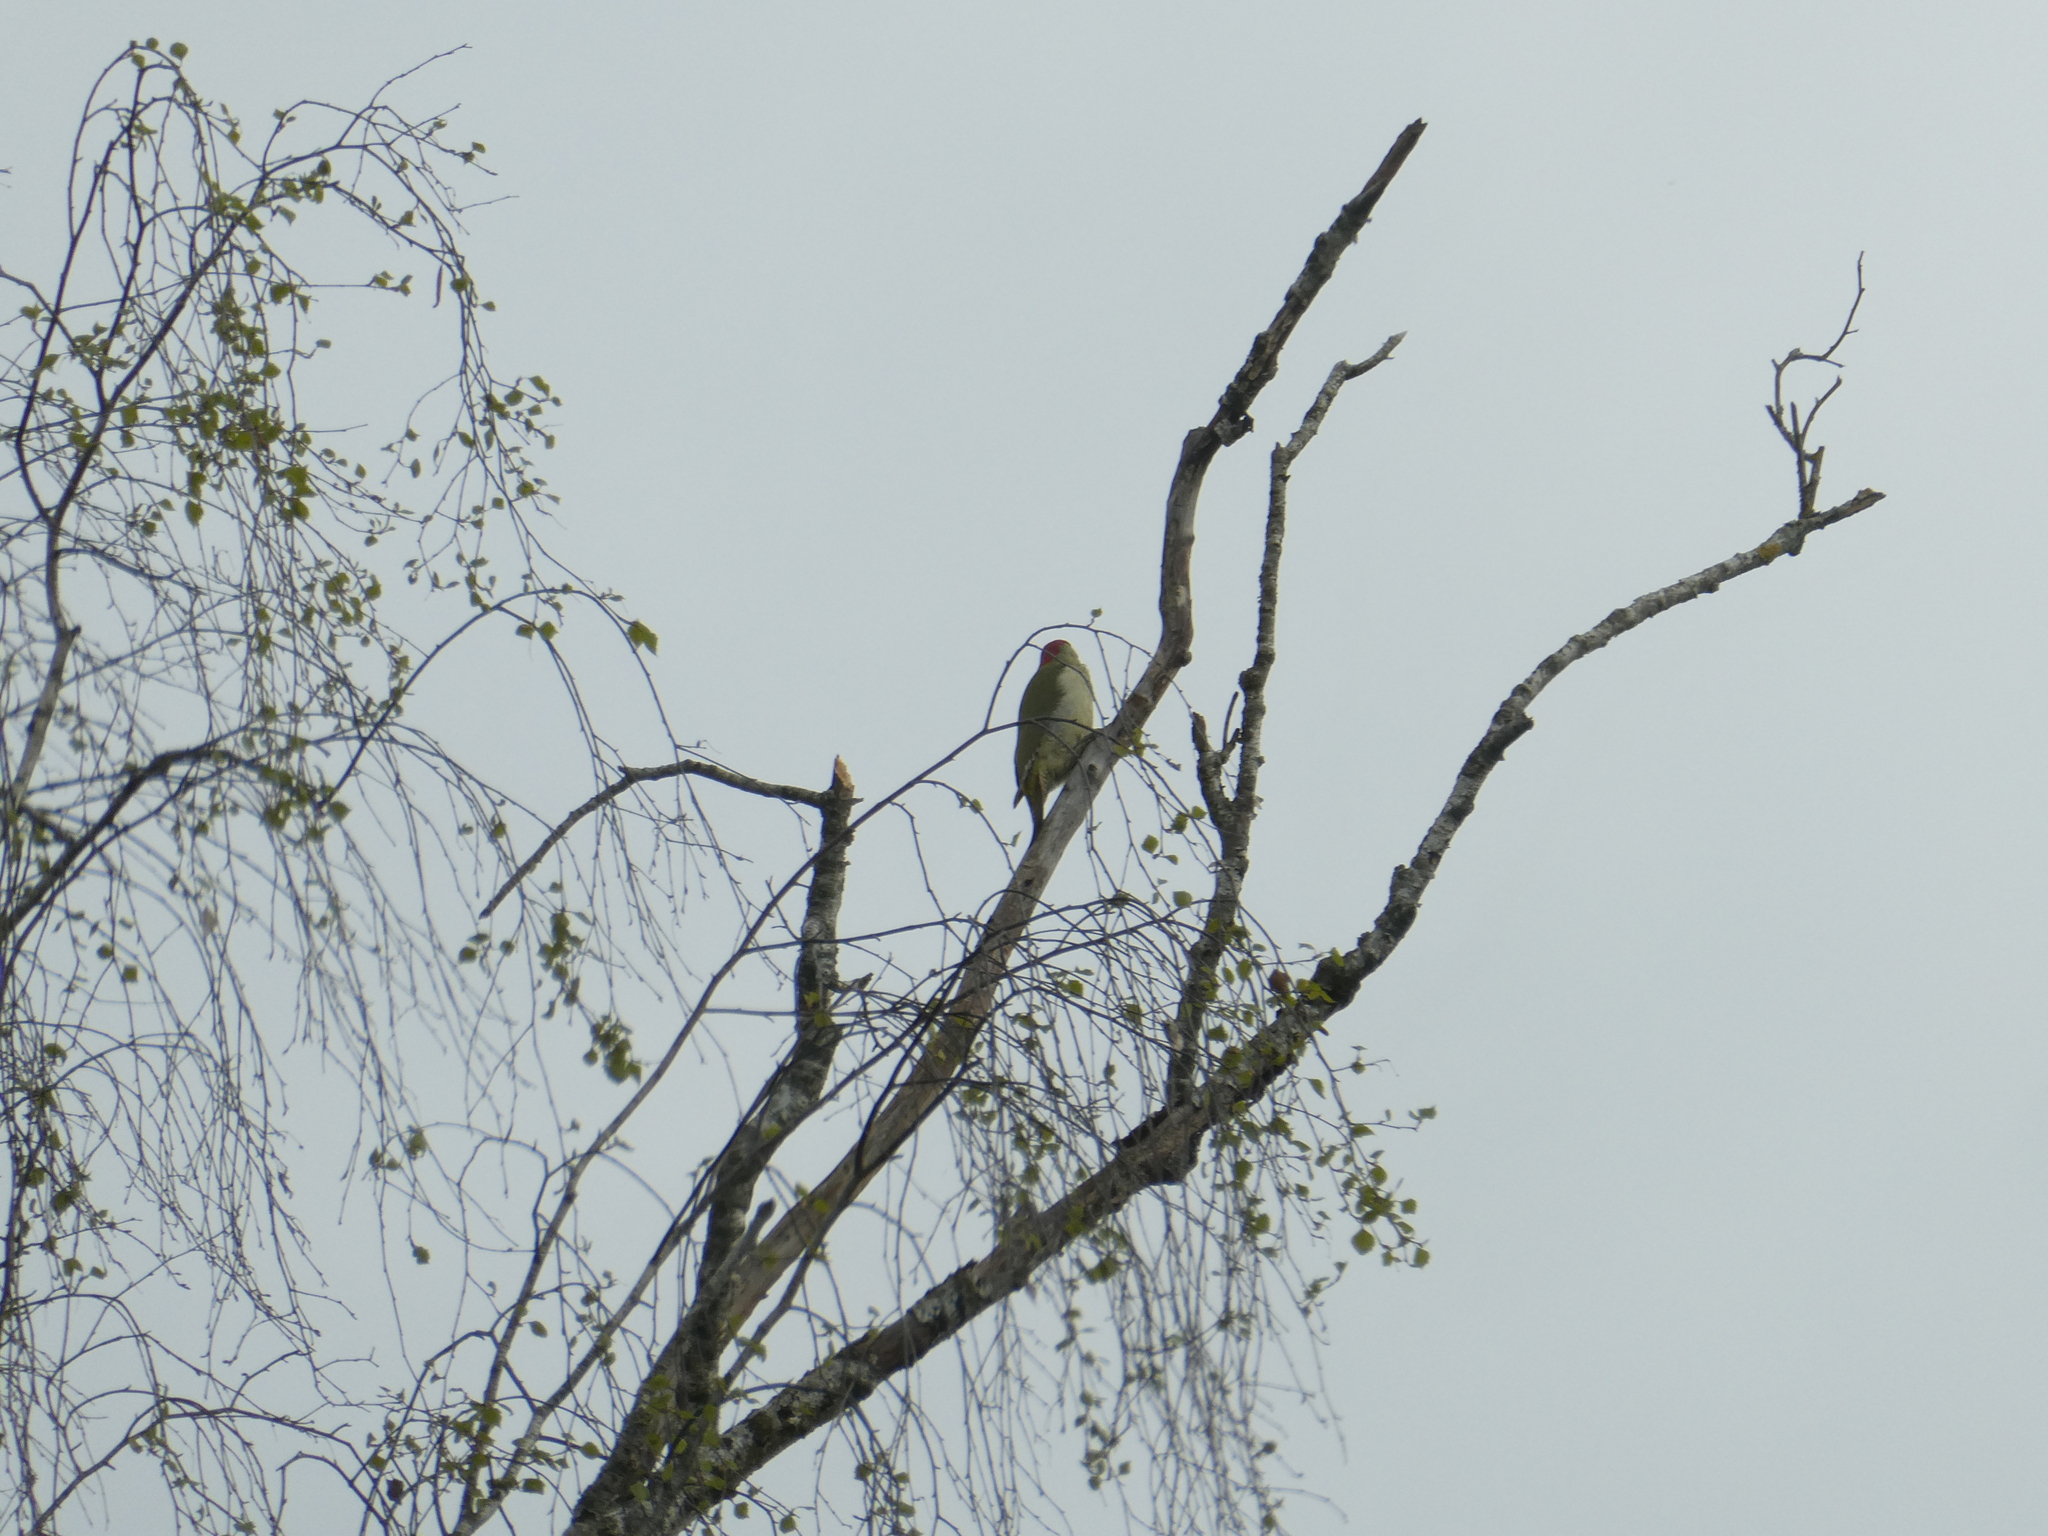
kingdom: Animalia
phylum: Chordata
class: Aves
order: Piciformes
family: Picidae
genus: Picus
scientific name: Picus viridis
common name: European green woodpecker
